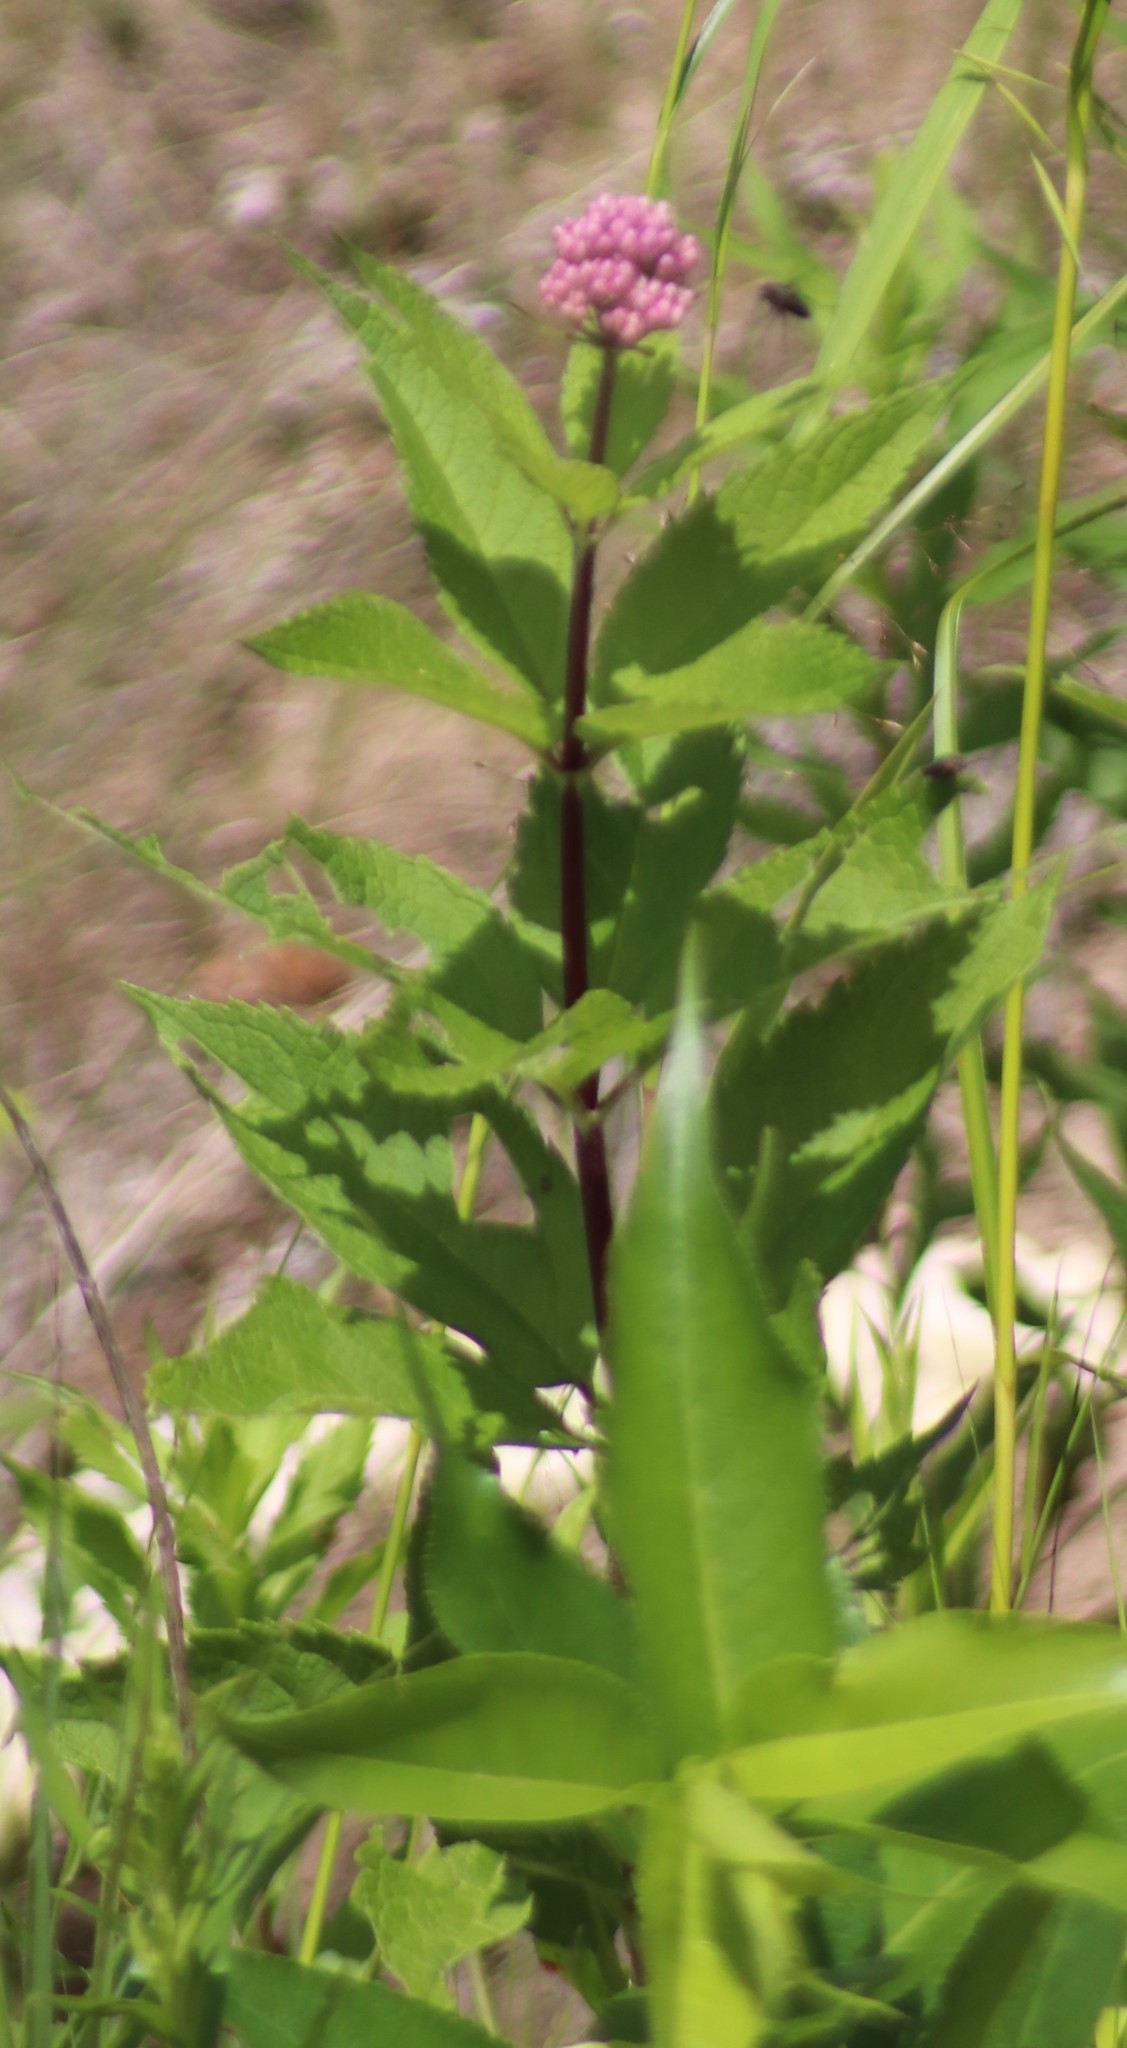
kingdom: Plantae
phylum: Tracheophyta
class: Magnoliopsida
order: Asterales
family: Asteraceae
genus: Eutrochium
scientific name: Eutrochium maculatum
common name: Spotted joe pye weed
